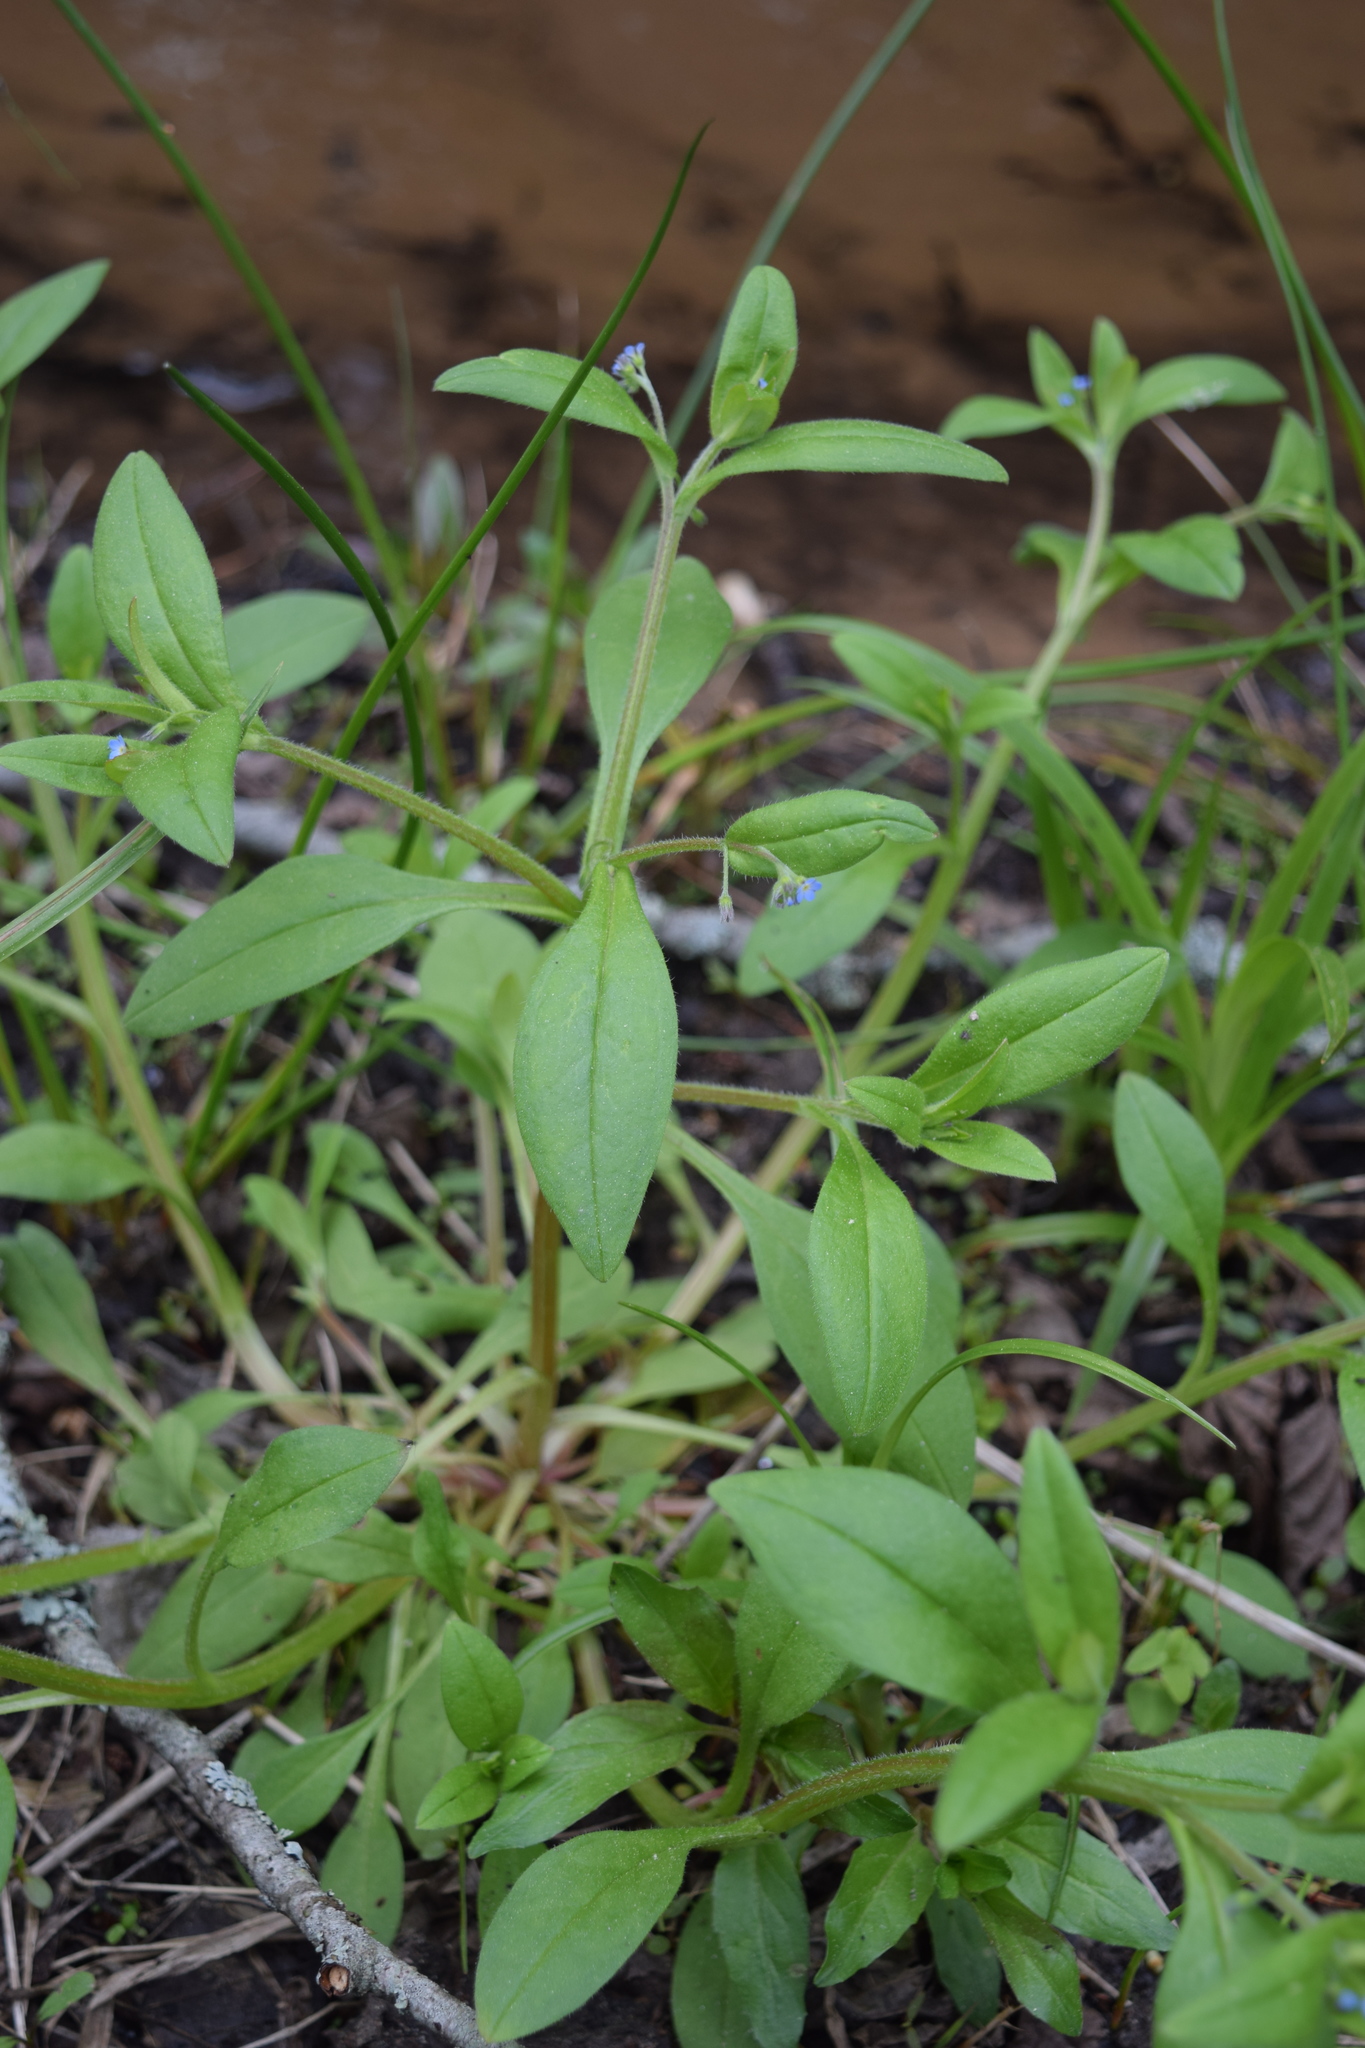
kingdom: Plantae
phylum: Tracheophyta
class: Magnoliopsida
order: Boraginales
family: Boraginaceae
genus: Myosotis
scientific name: Myosotis sparsiflora
